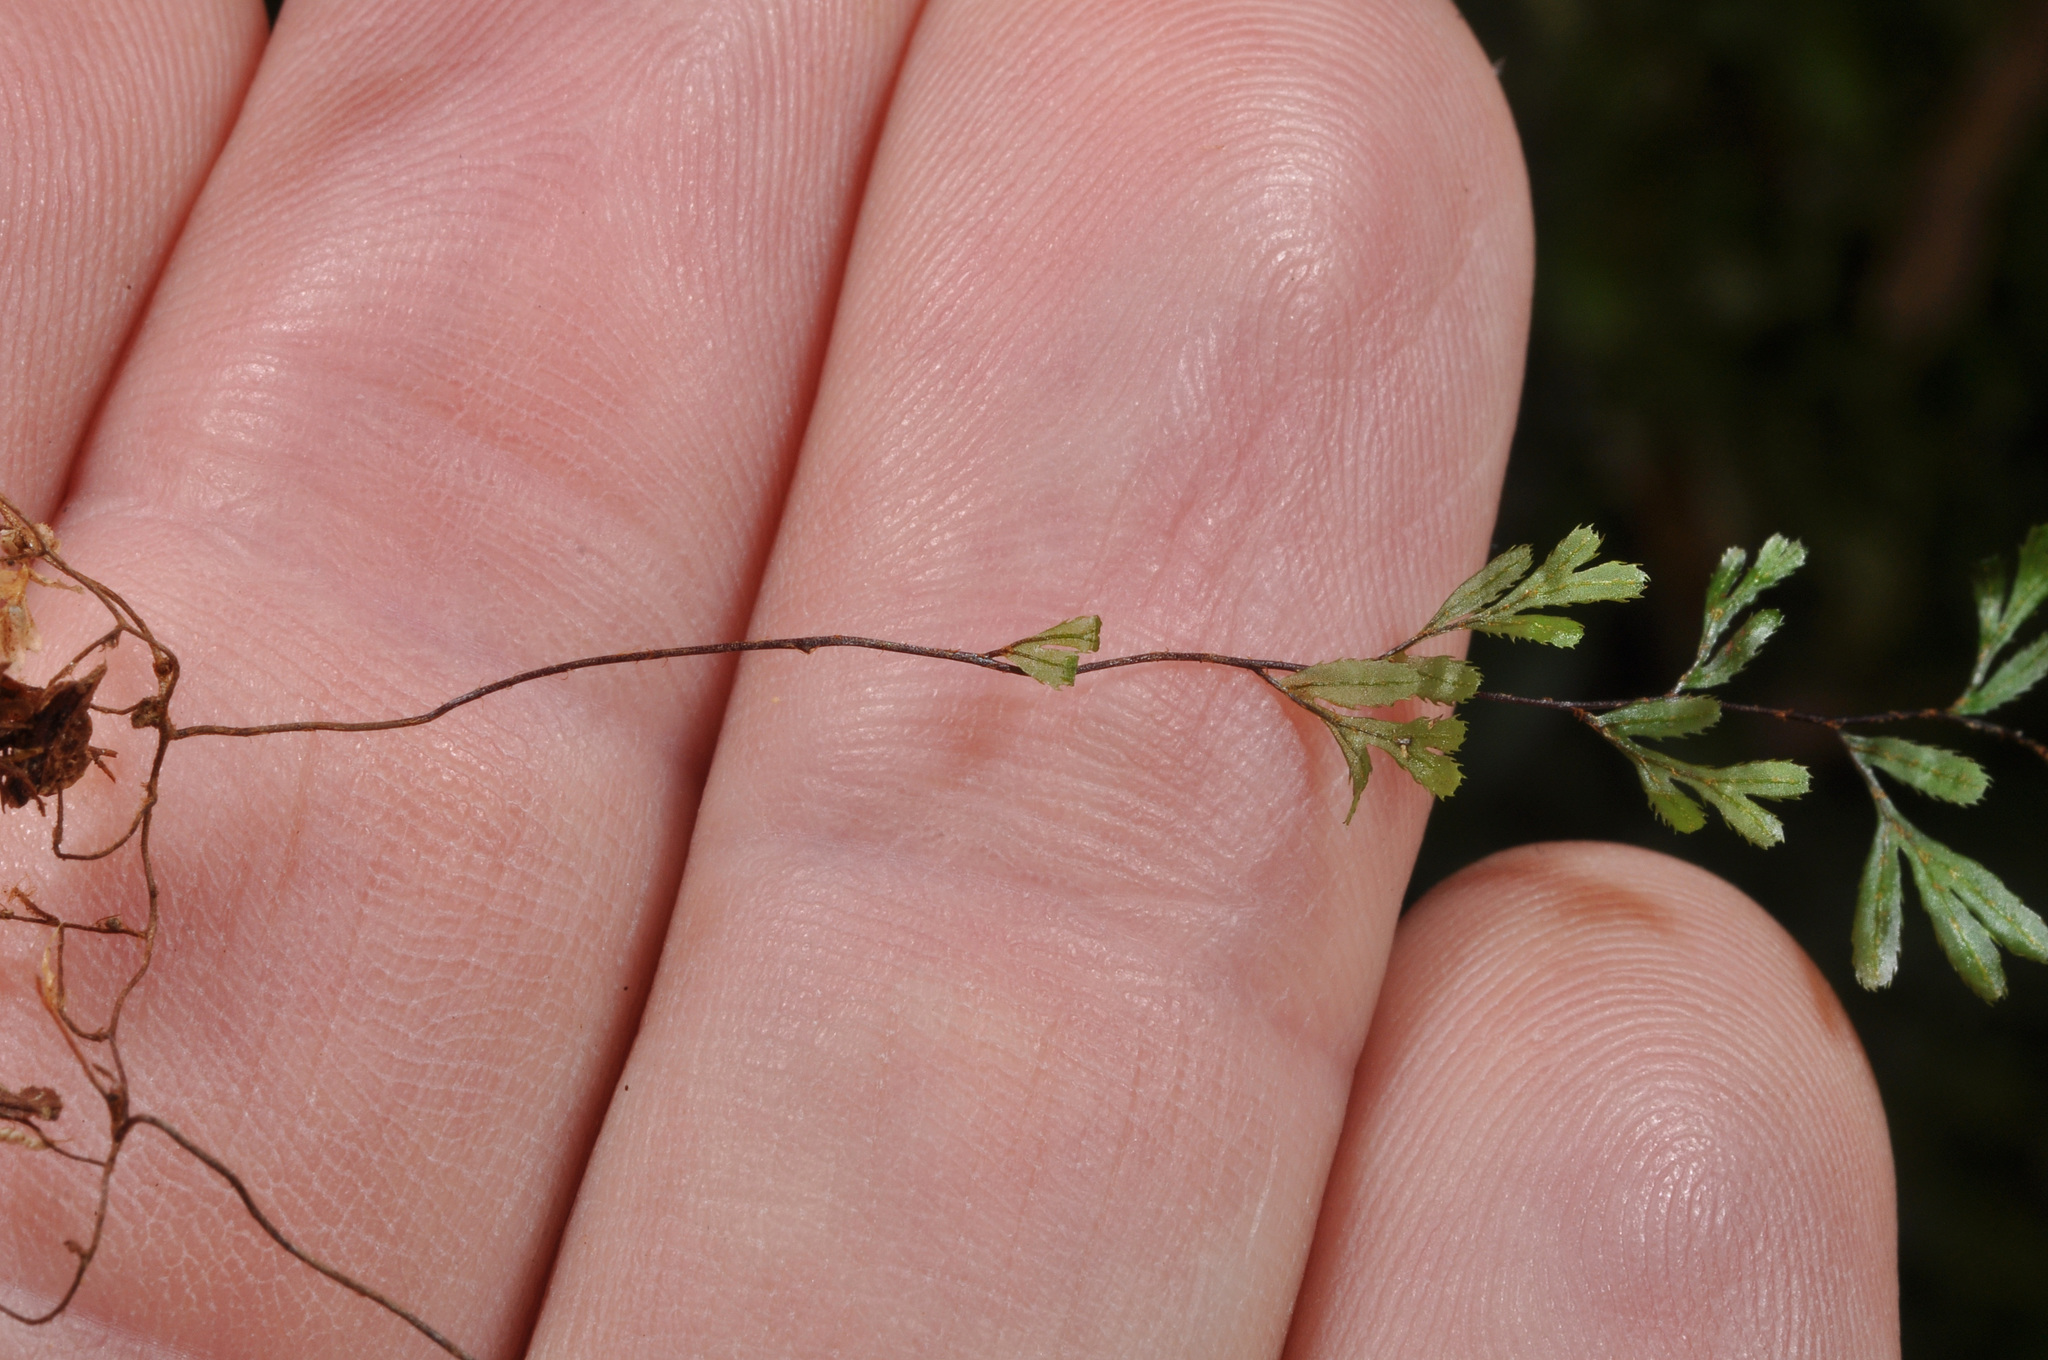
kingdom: Plantae
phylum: Tracheophyta
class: Polypodiopsida
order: Hymenophyllales
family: Hymenophyllaceae
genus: Hymenophyllum
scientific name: Hymenophyllum revolutum
